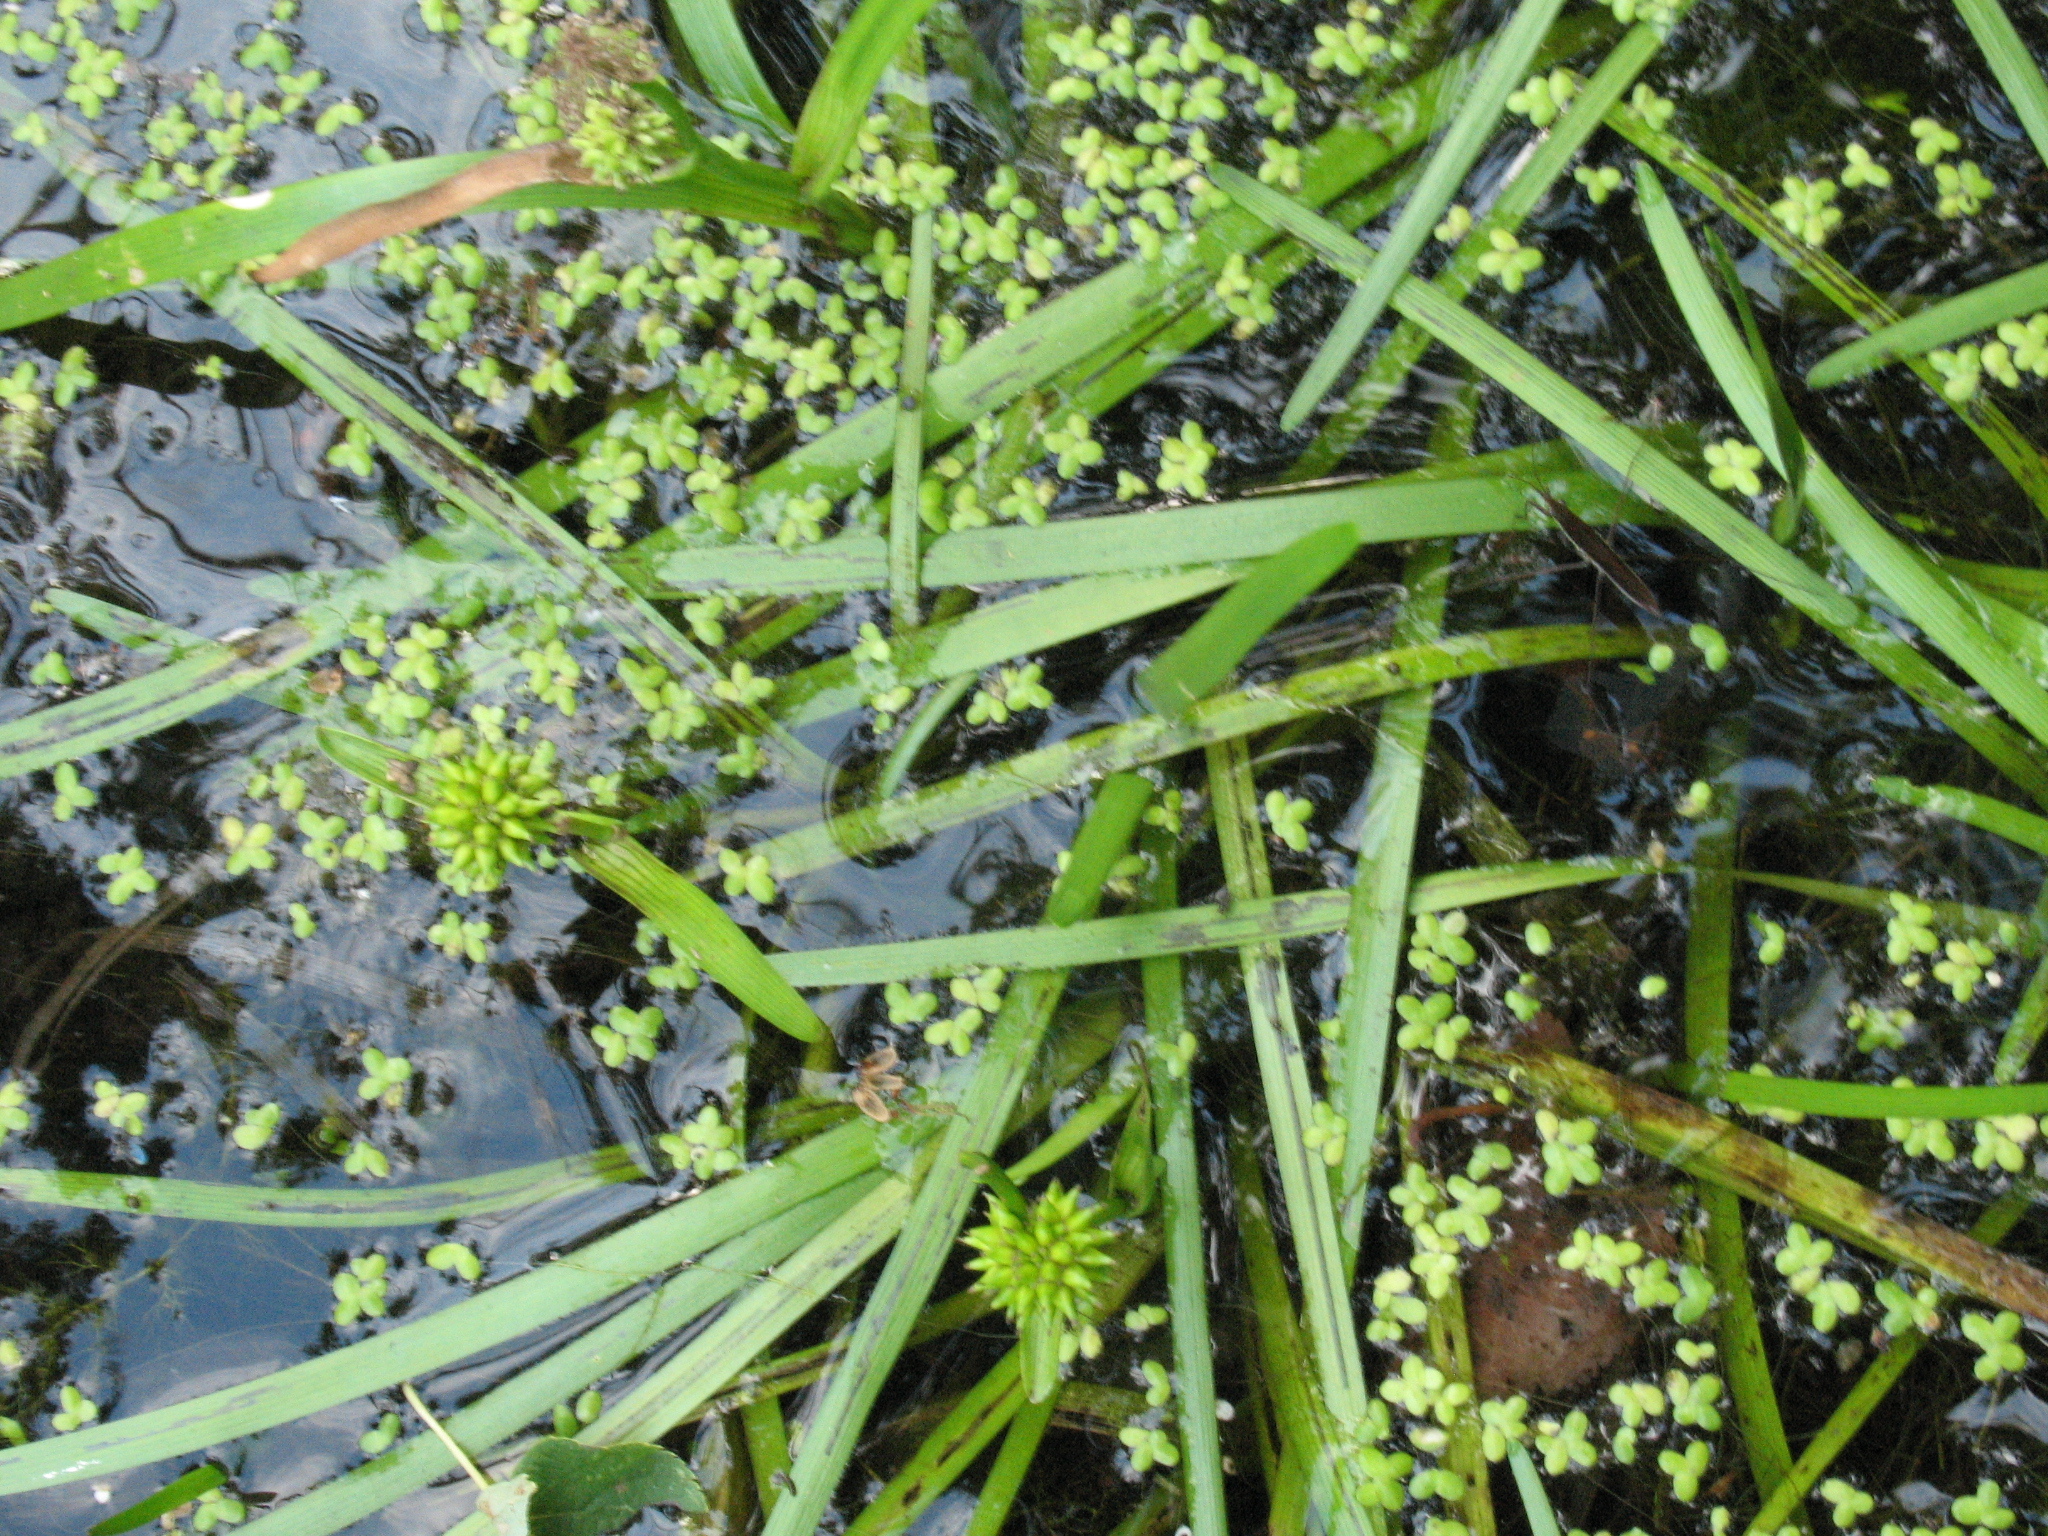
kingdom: Plantae
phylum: Tracheophyta
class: Liliopsida
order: Poales
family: Typhaceae
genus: Sparganium
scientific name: Sparganium natans
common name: Least bur-reed
